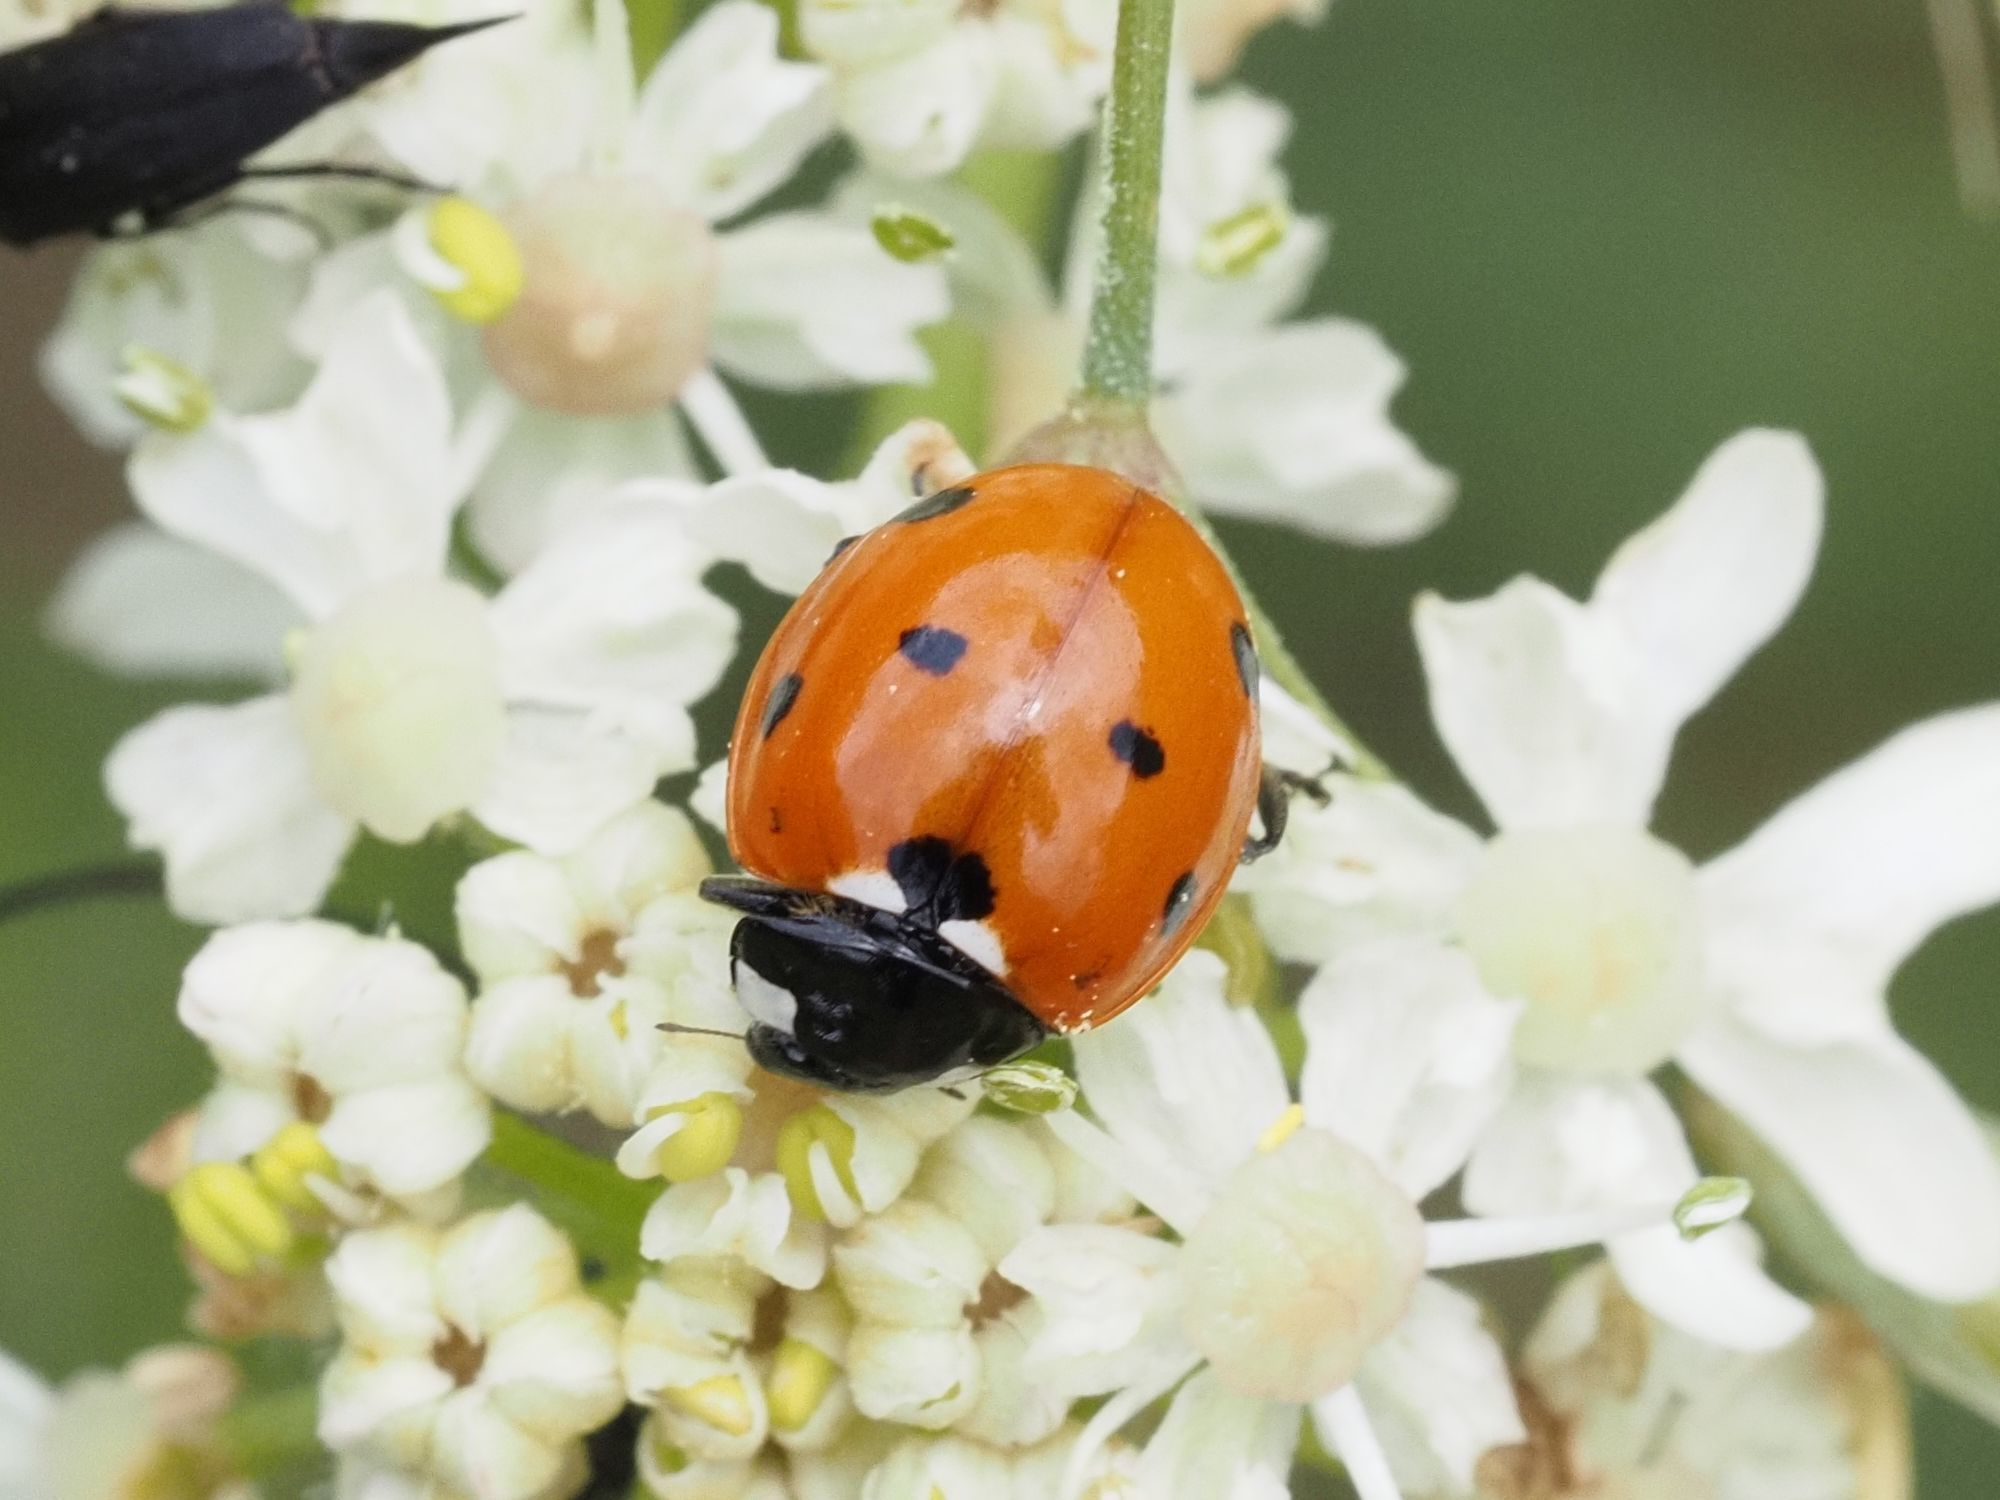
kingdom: Animalia
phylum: Arthropoda
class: Insecta
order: Coleoptera
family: Coccinellidae
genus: Coccinella
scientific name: Coccinella septempunctata
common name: Sevenspotted lady beetle
